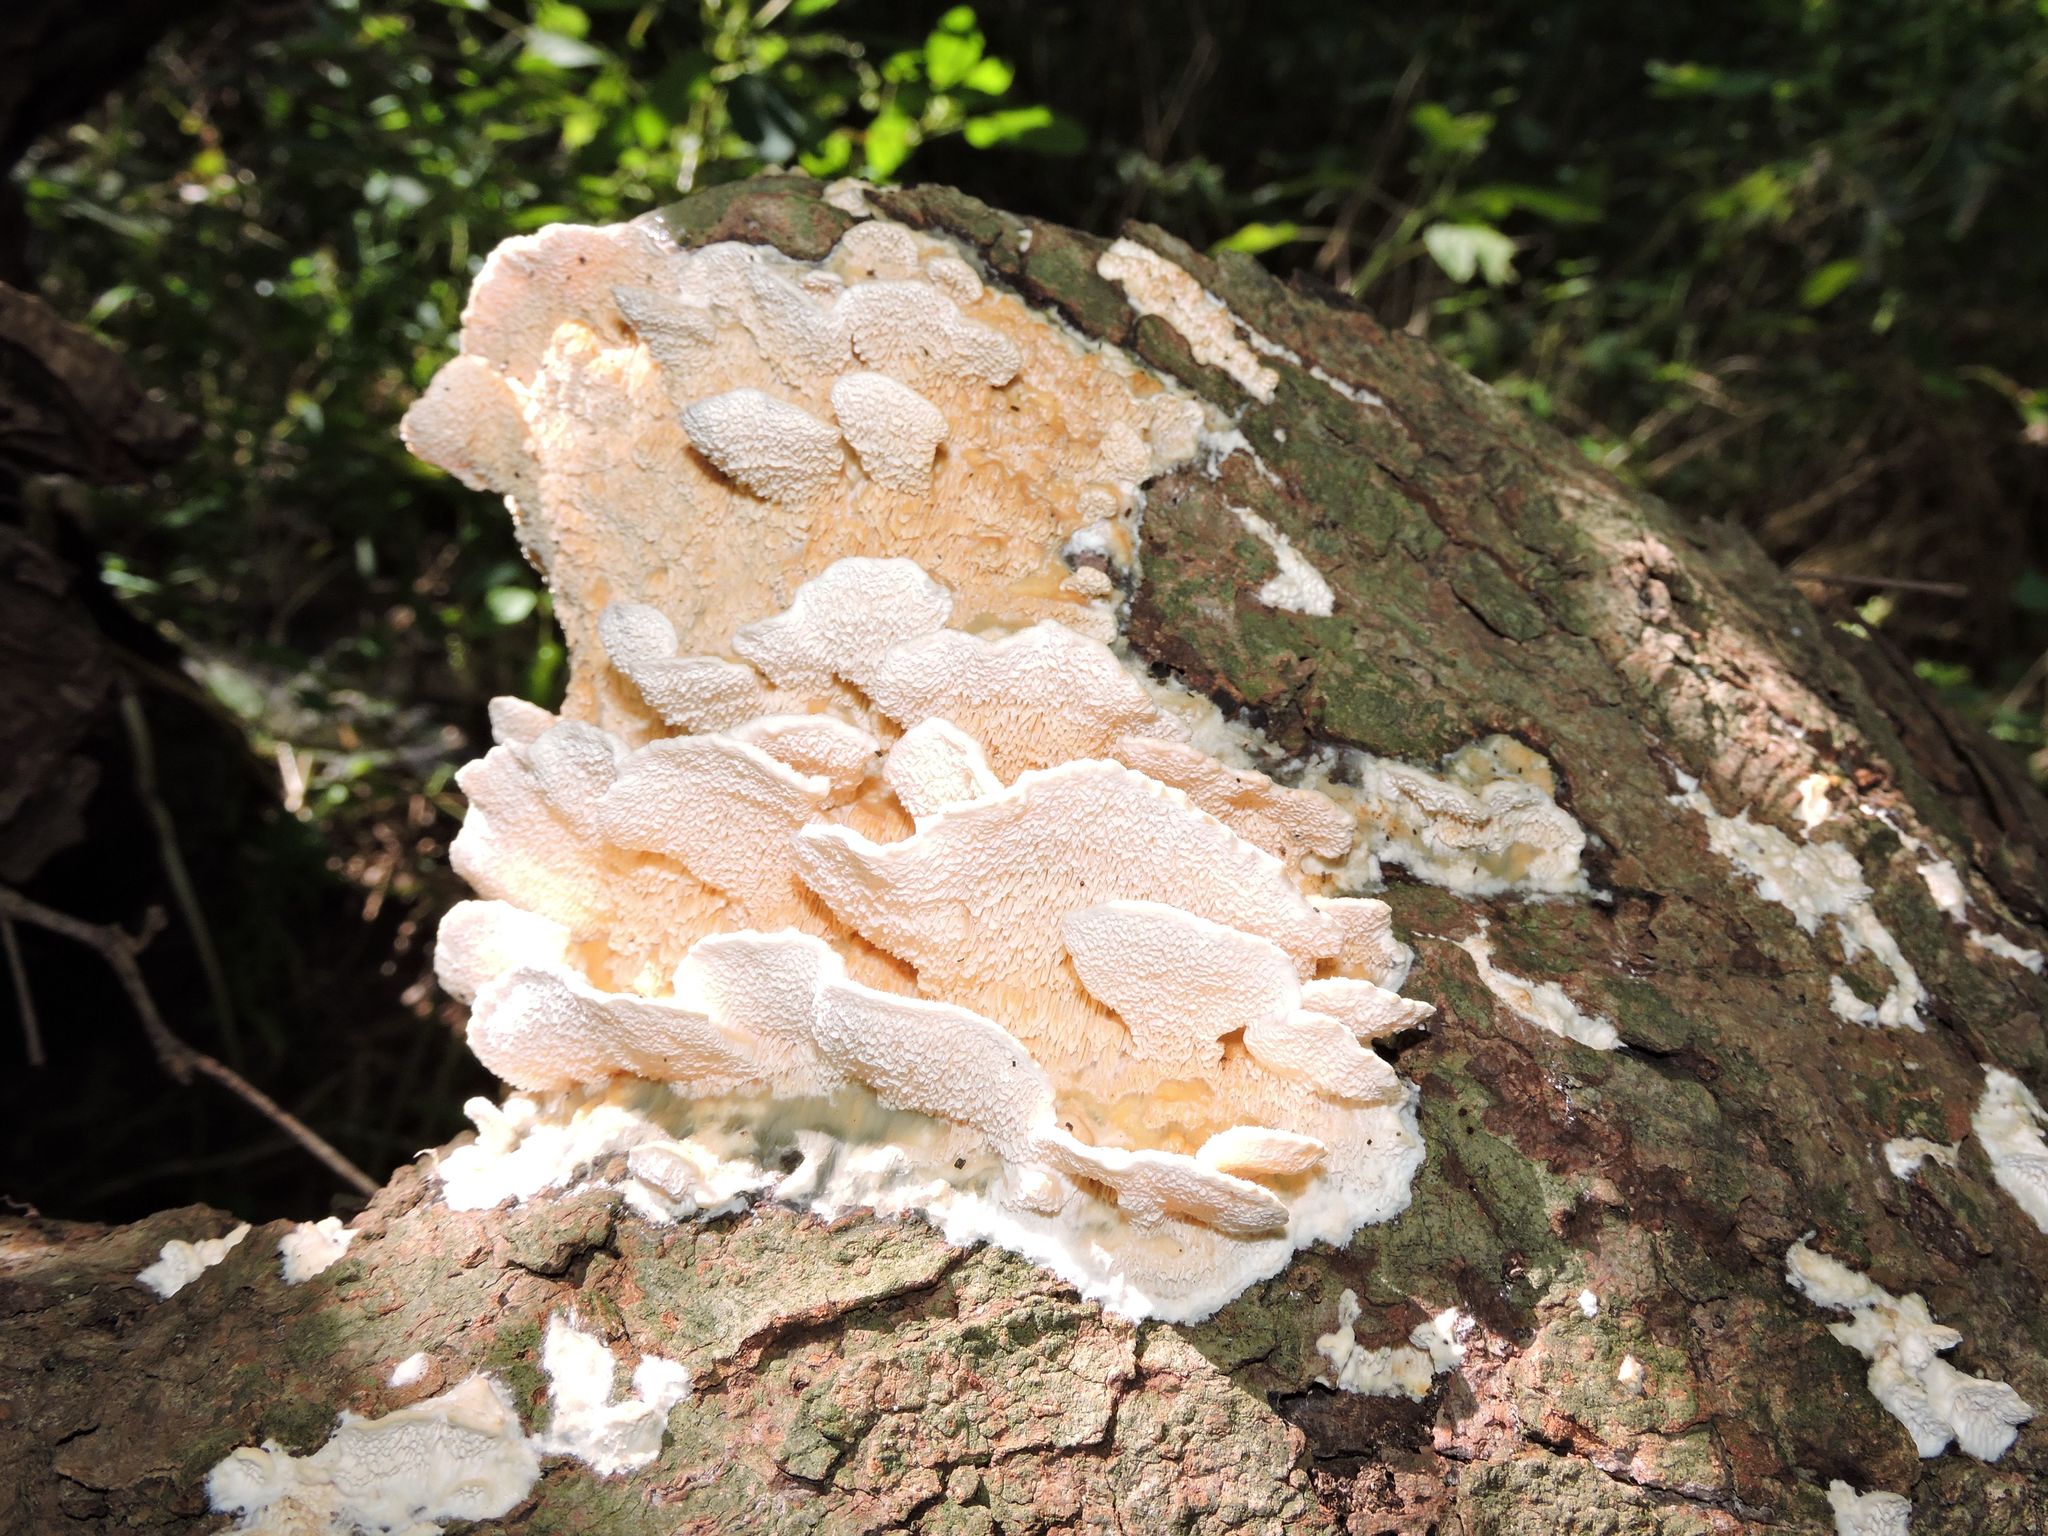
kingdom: Fungi
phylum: Basidiomycota
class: Agaricomycetes
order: Polyporales
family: Irpicaceae
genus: Irpex
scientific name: Irpex lacteus
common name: Milk-white toothed polypore
